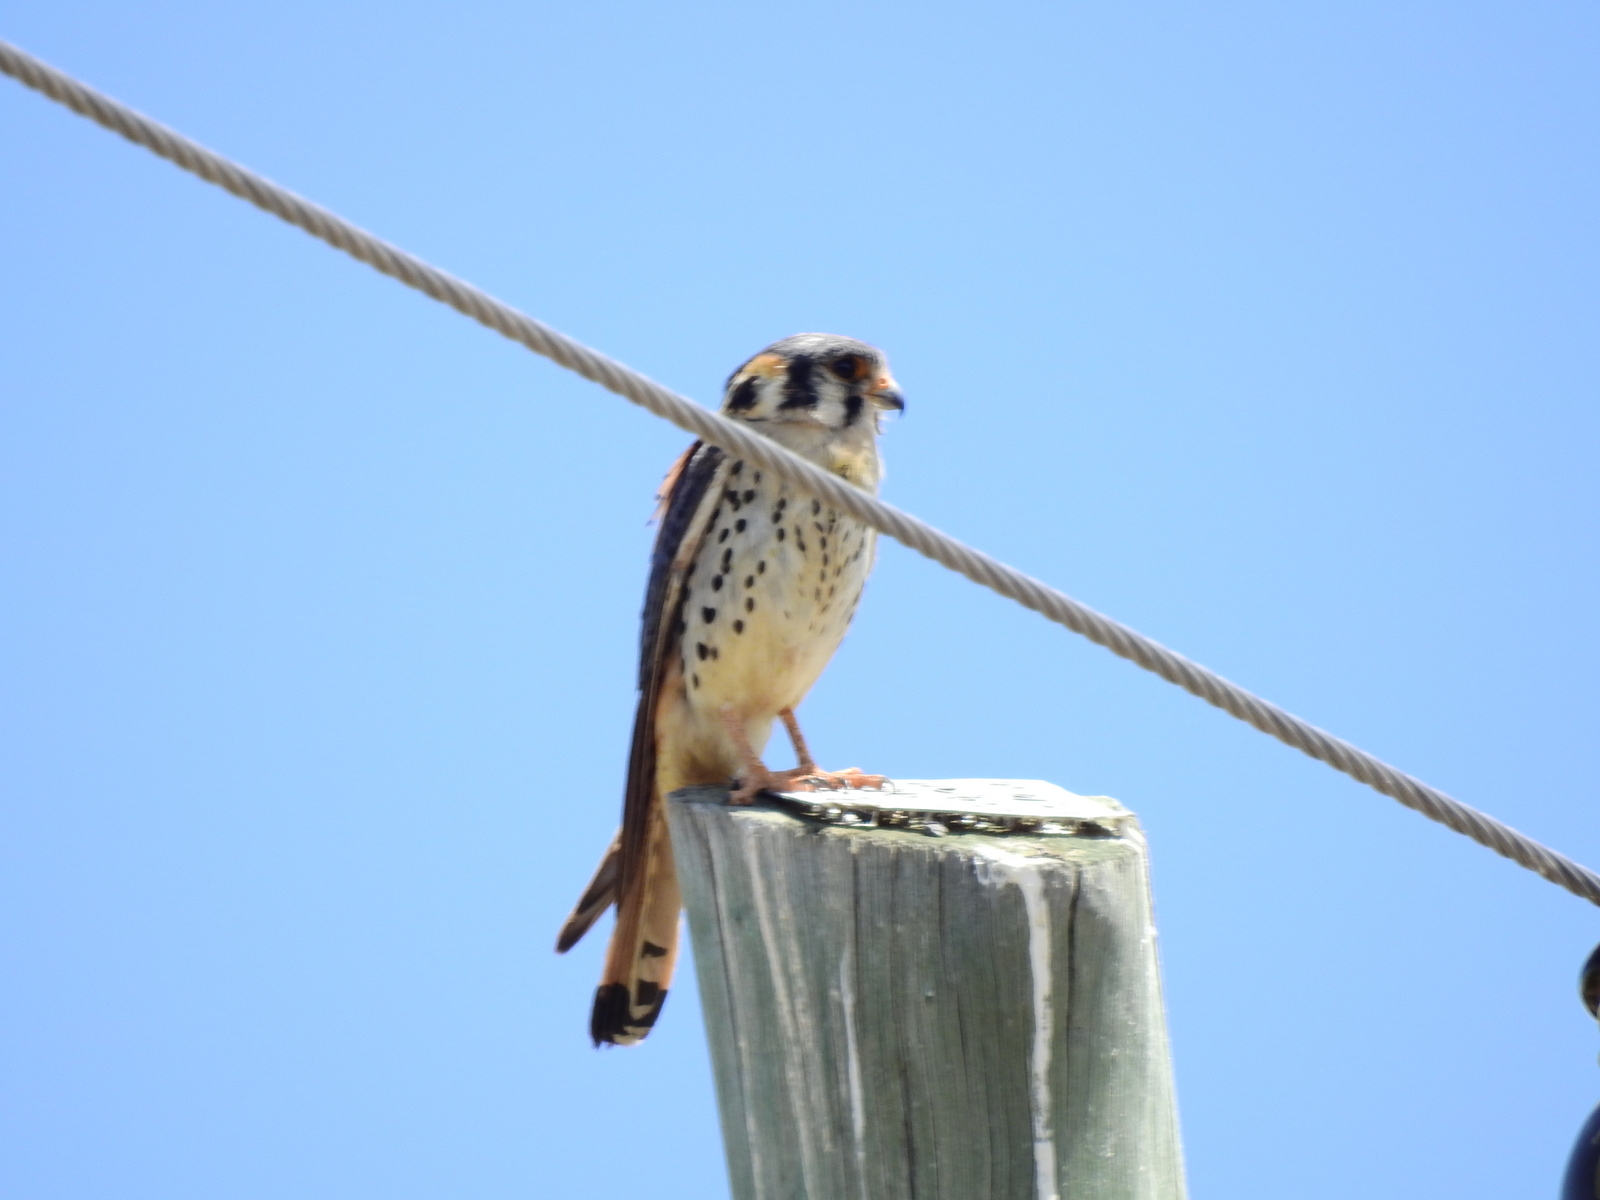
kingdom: Animalia
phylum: Chordata
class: Aves
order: Falconiformes
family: Falconidae
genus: Falco
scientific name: Falco sparverius
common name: American kestrel
